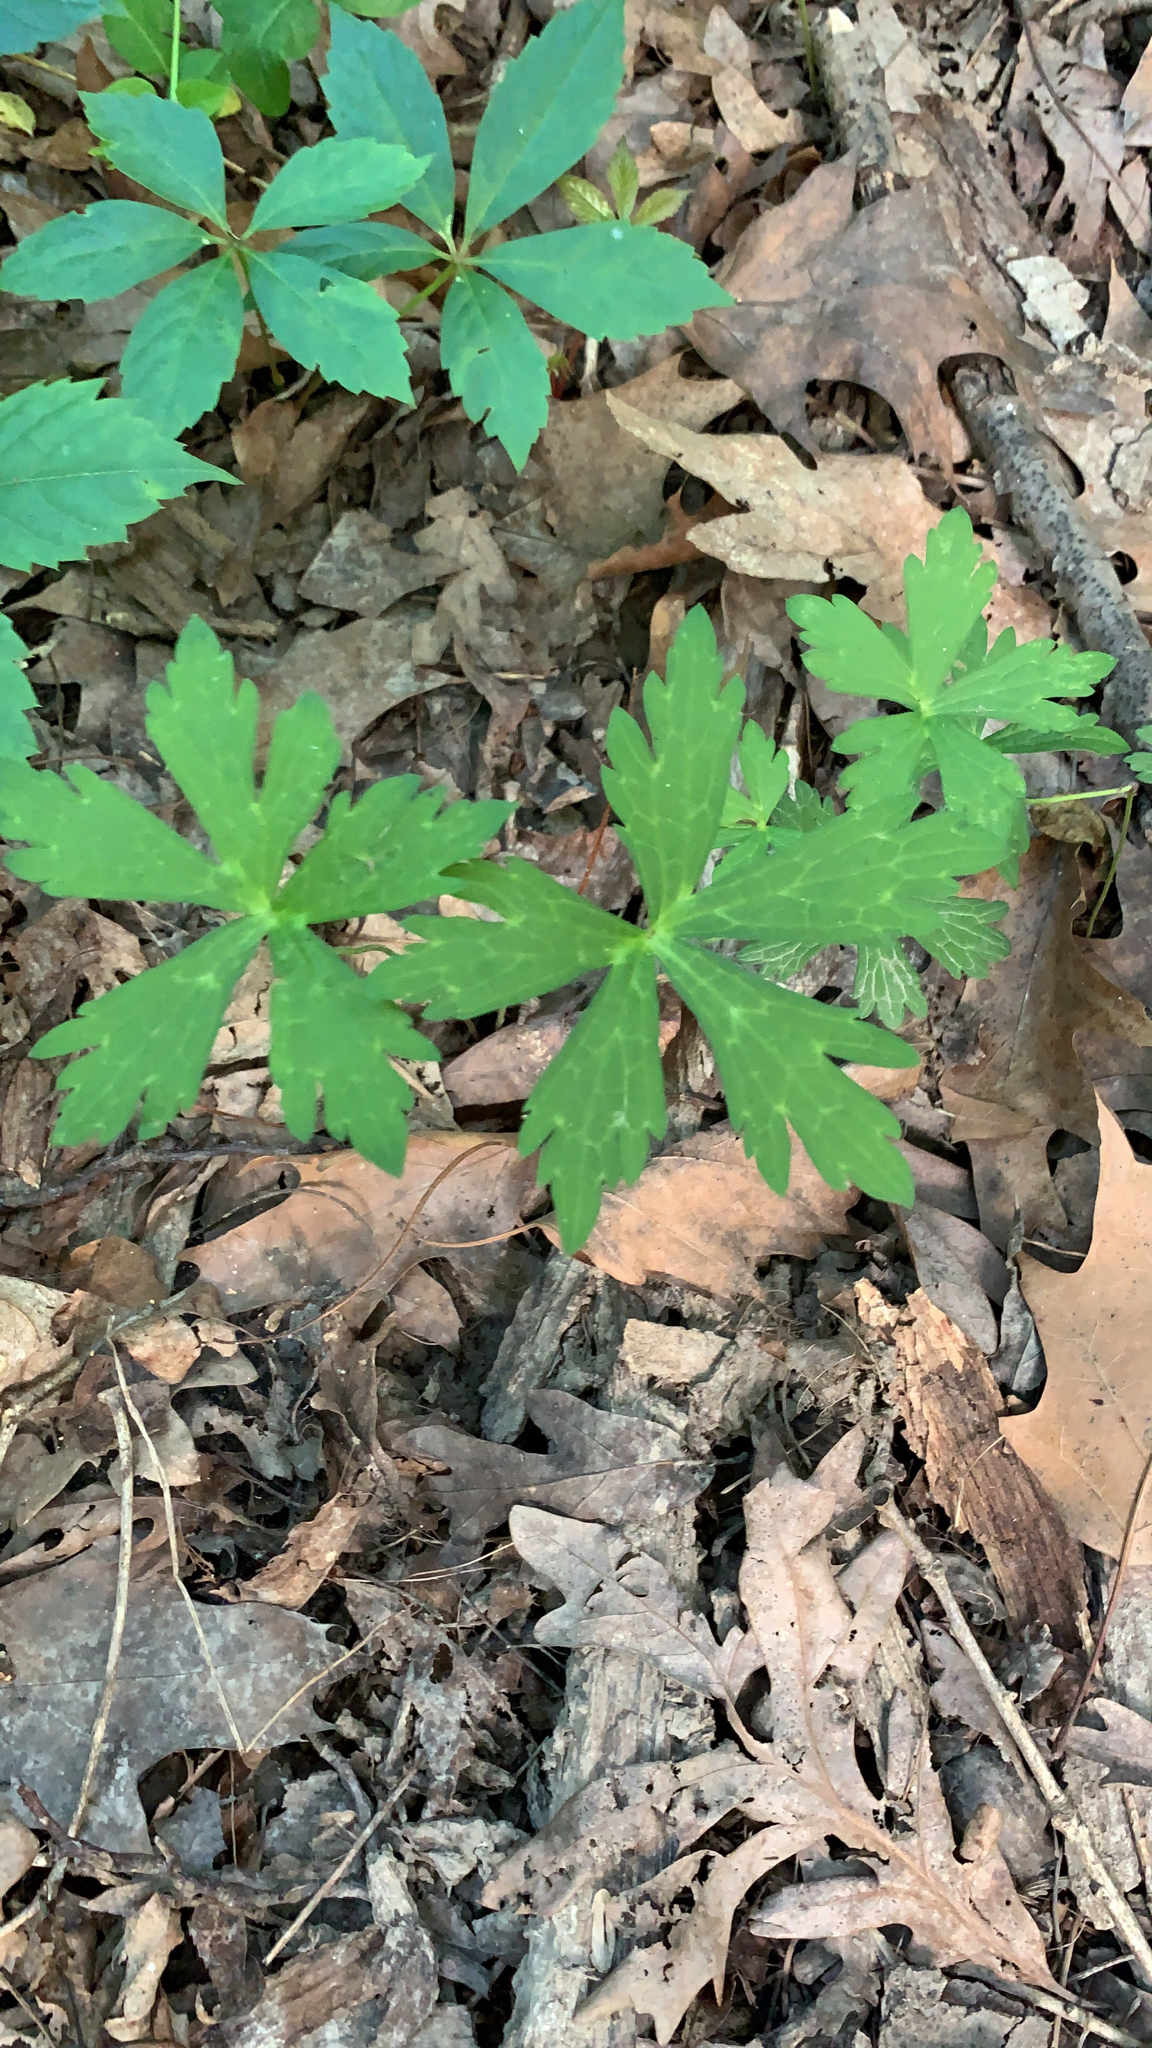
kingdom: Plantae
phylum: Tracheophyta
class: Magnoliopsida
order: Geraniales
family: Geraniaceae
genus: Geranium
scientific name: Geranium maculatum
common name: Spotted geranium
